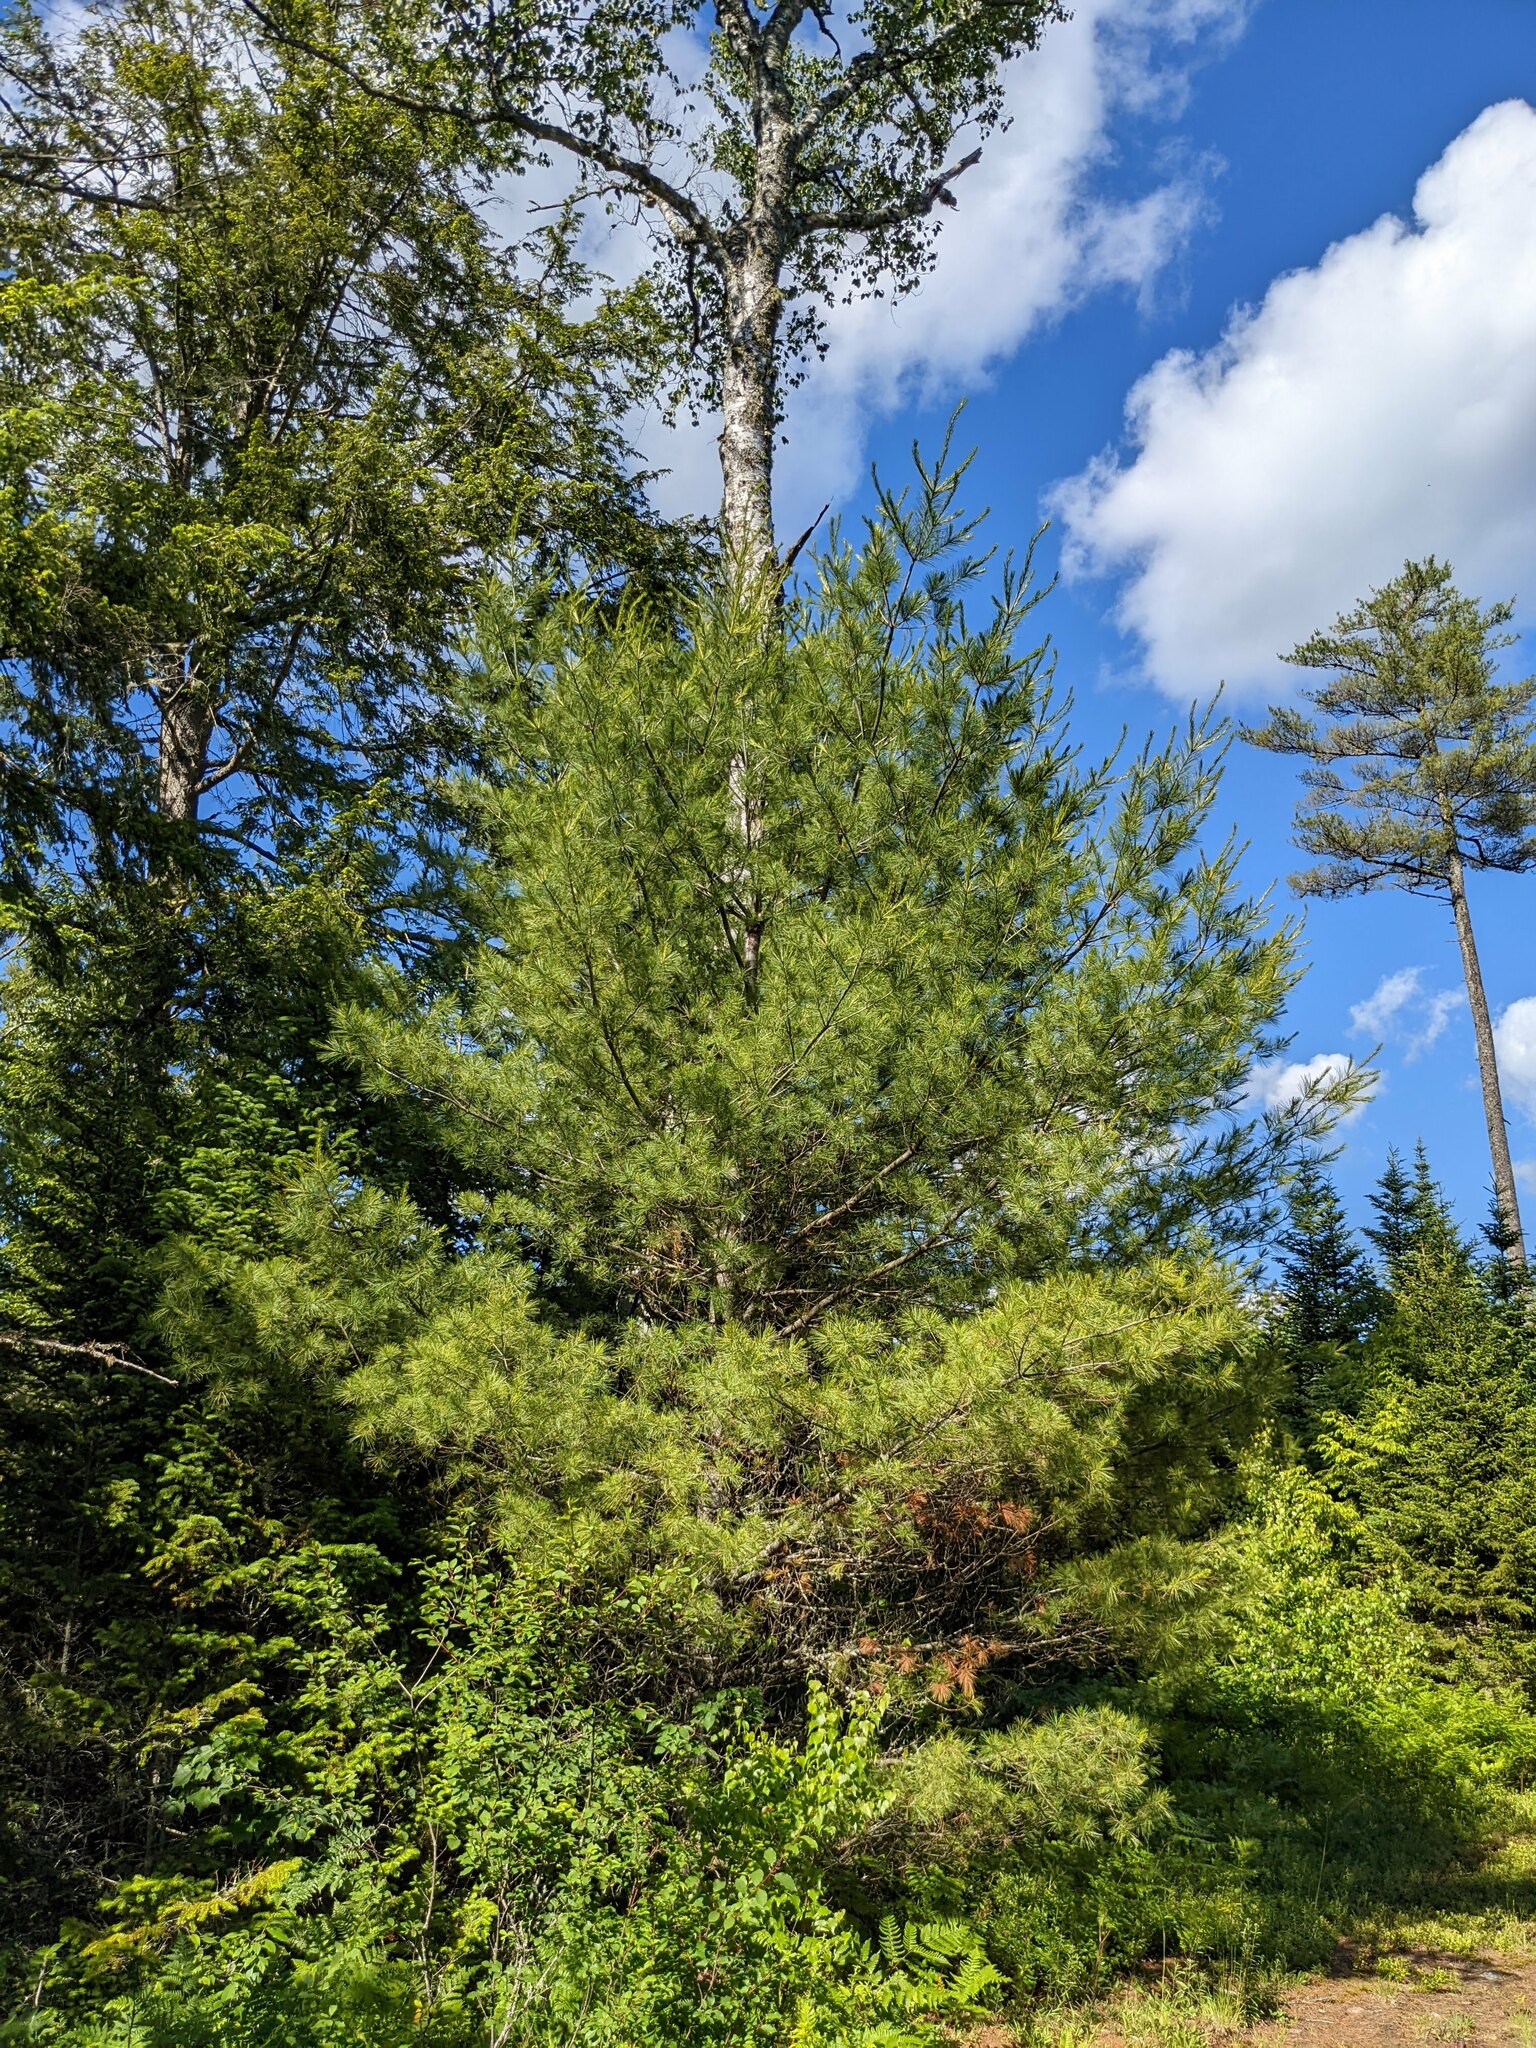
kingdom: Plantae
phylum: Tracheophyta
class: Pinopsida
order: Pinales
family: Pinaceae
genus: Pinus
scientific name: Pinus strobus
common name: Weymouth pine
